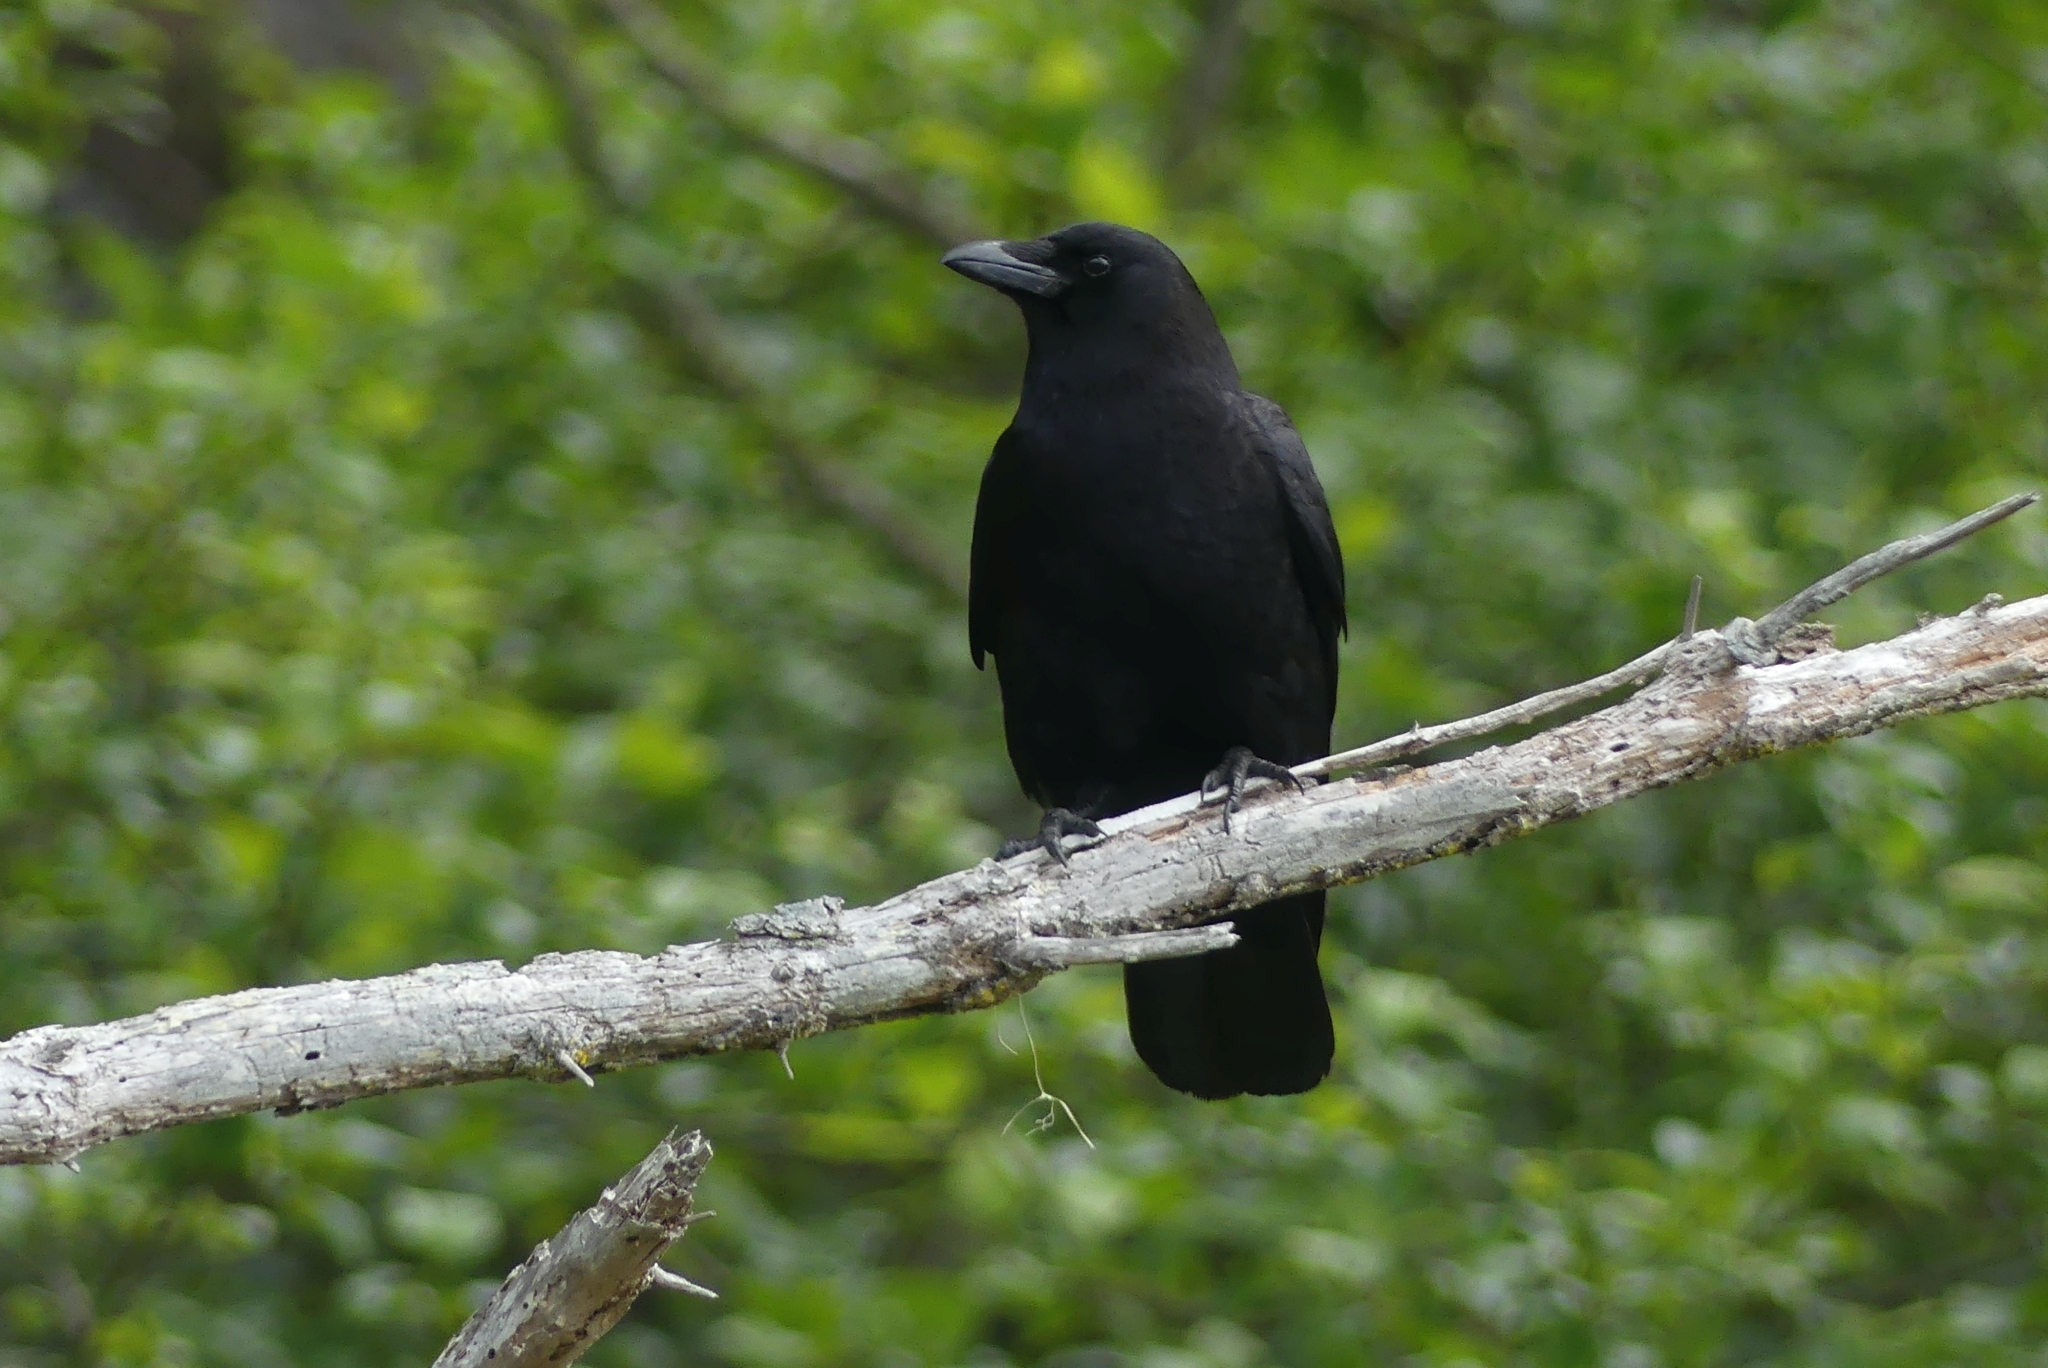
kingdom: Animalia
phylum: Chordata
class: Aves
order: Passeriformes
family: Corvidae
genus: Corvus
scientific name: Corvus brachyrhynchos
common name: American crow
